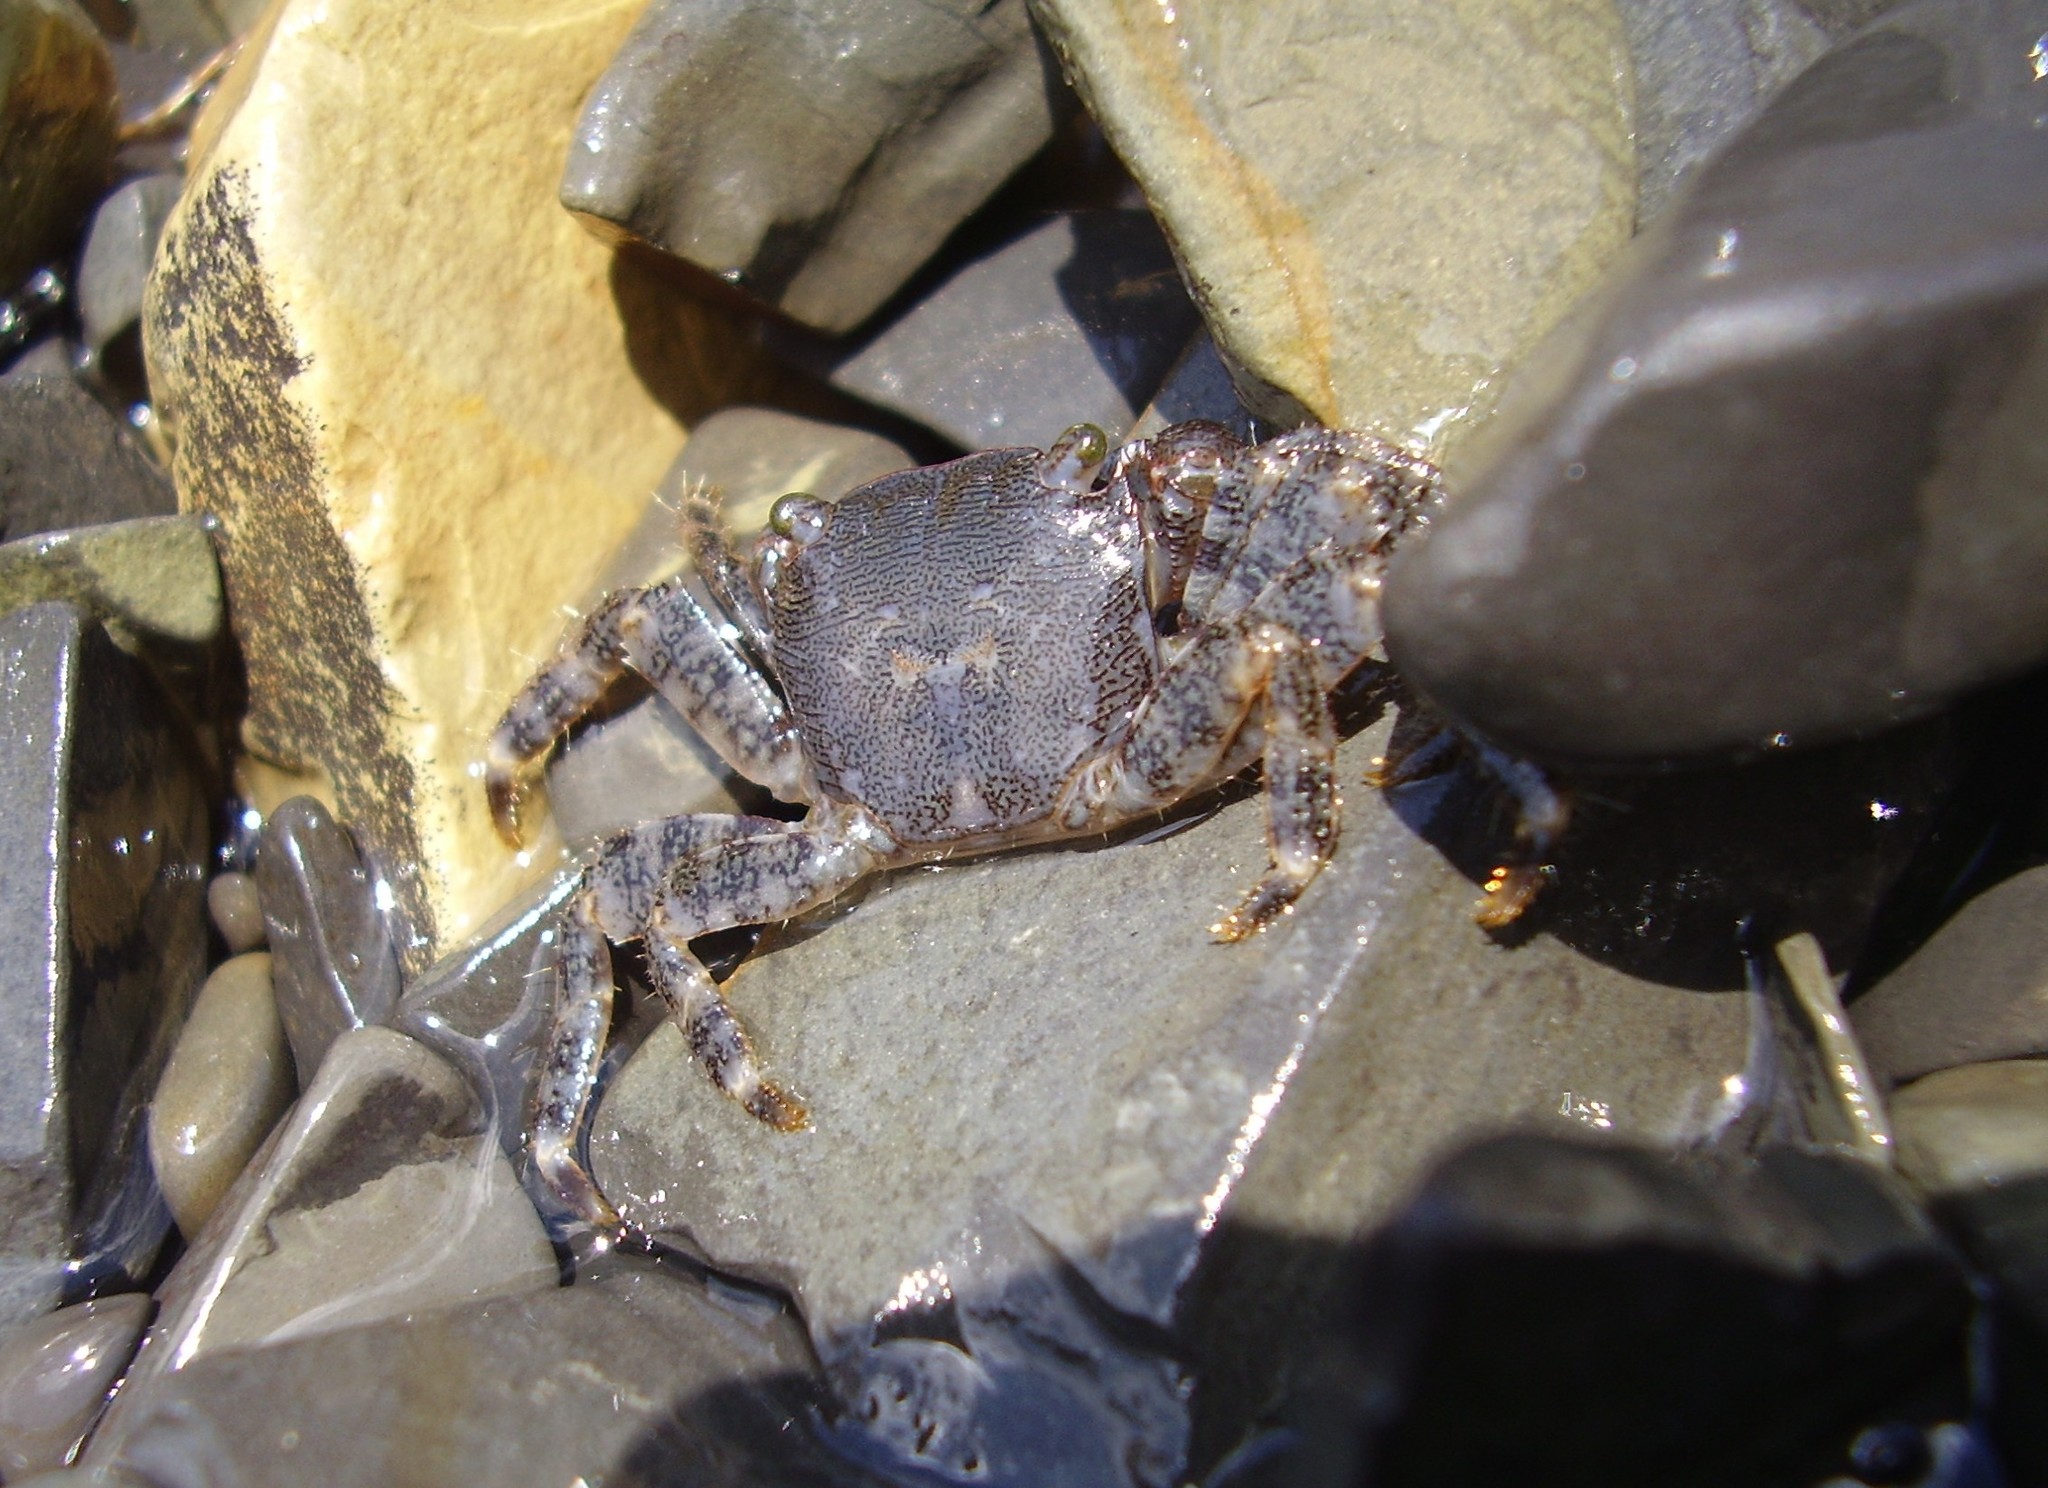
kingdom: Animalia
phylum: Arthropoda
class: Malacostraca
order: Decapoda
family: Grapsidae
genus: Pachygrapsus
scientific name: Pachygrapsus marmoratus
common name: Marbled rock crab
